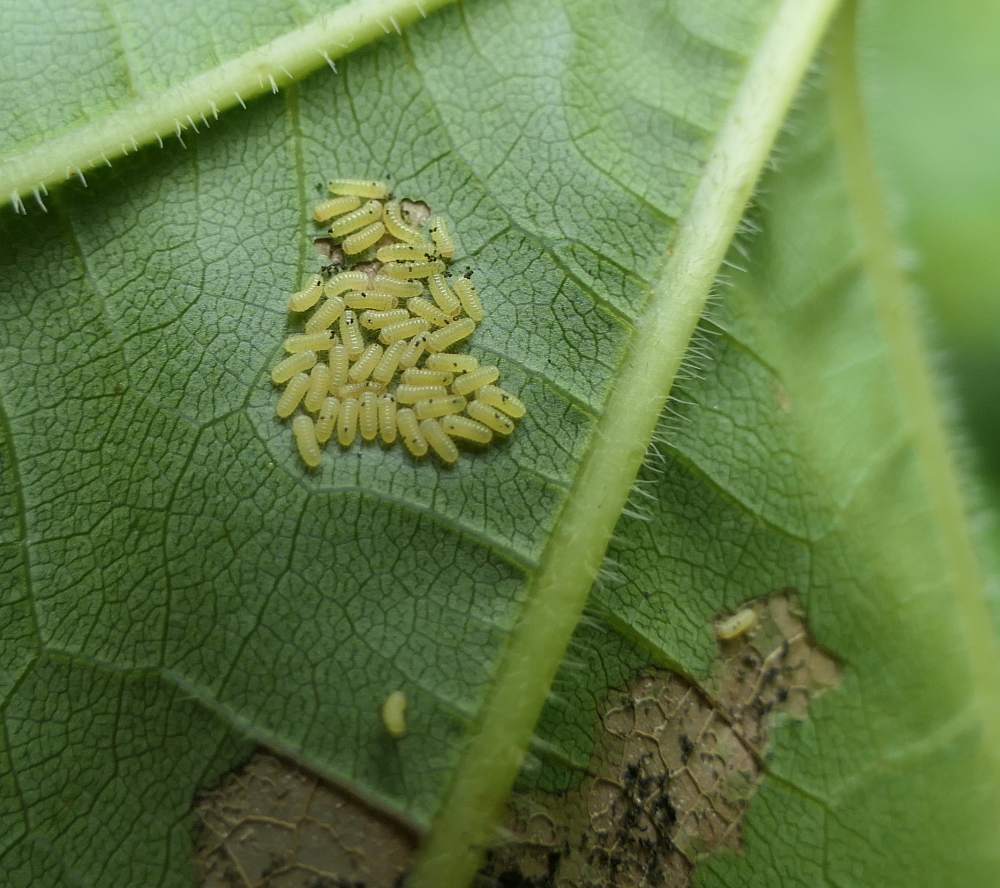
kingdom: Animalia
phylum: Arthropoda
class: Insecta
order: Lepidoptera
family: Zygaenidae
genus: Harrisina
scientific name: Harrisina americana
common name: Grapeleaf skeletonizer moth
